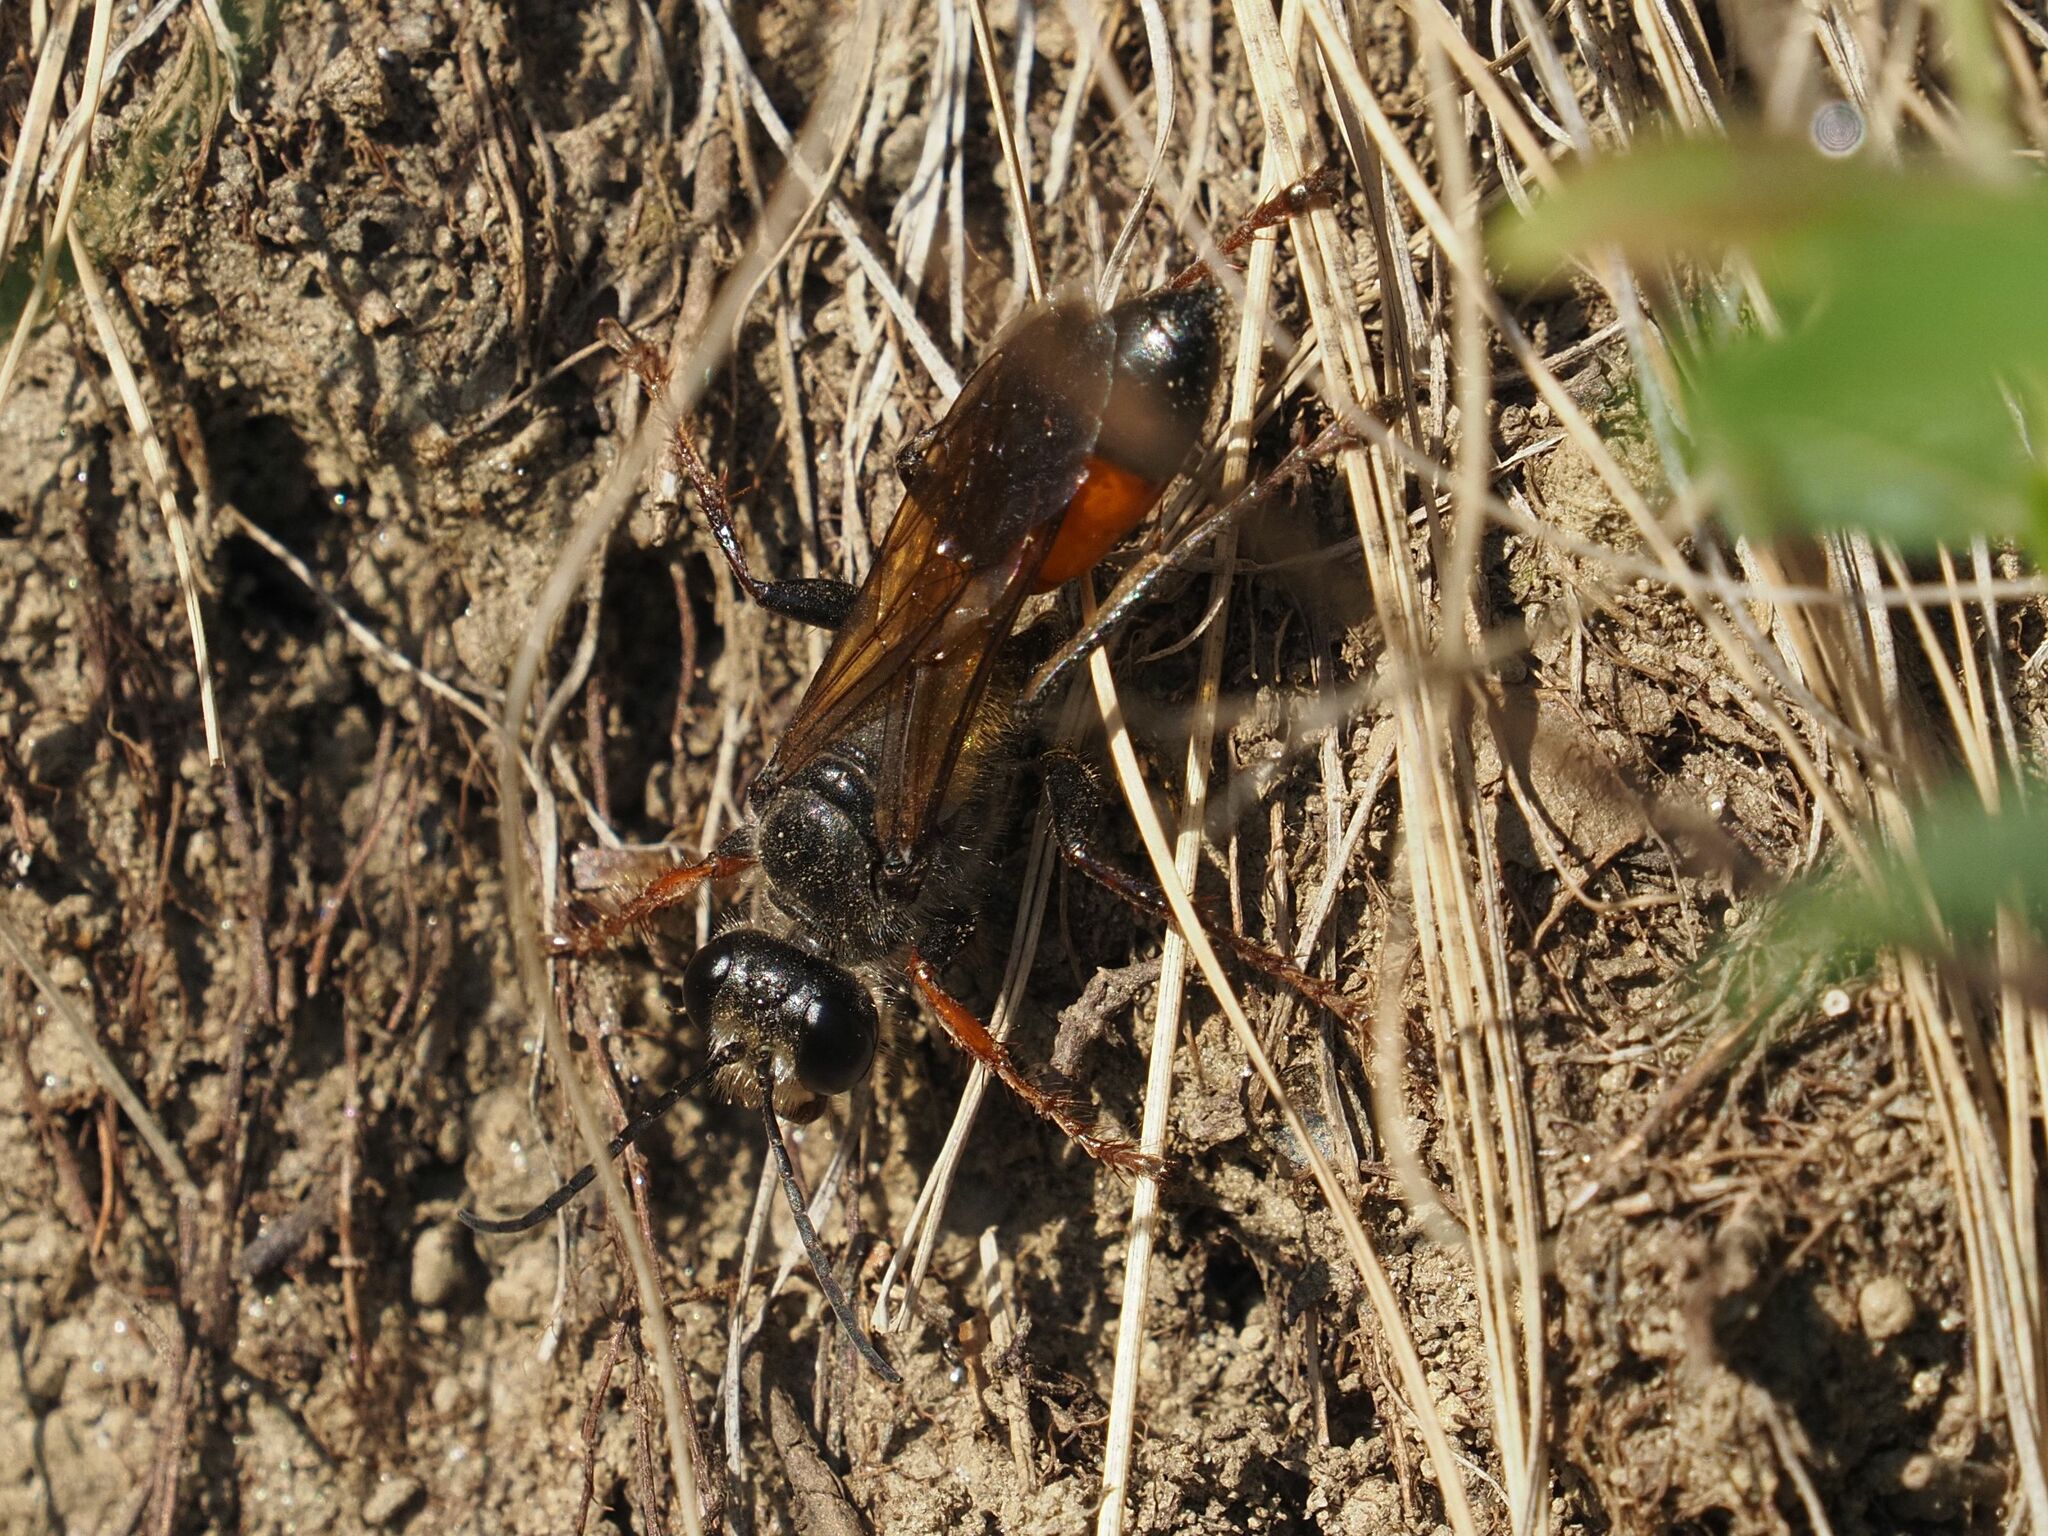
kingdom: Animalia
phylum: Arthropoda
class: Insecta
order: Hymenoptera
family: Sphecidae
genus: Sphex
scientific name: Sphex funerarius
